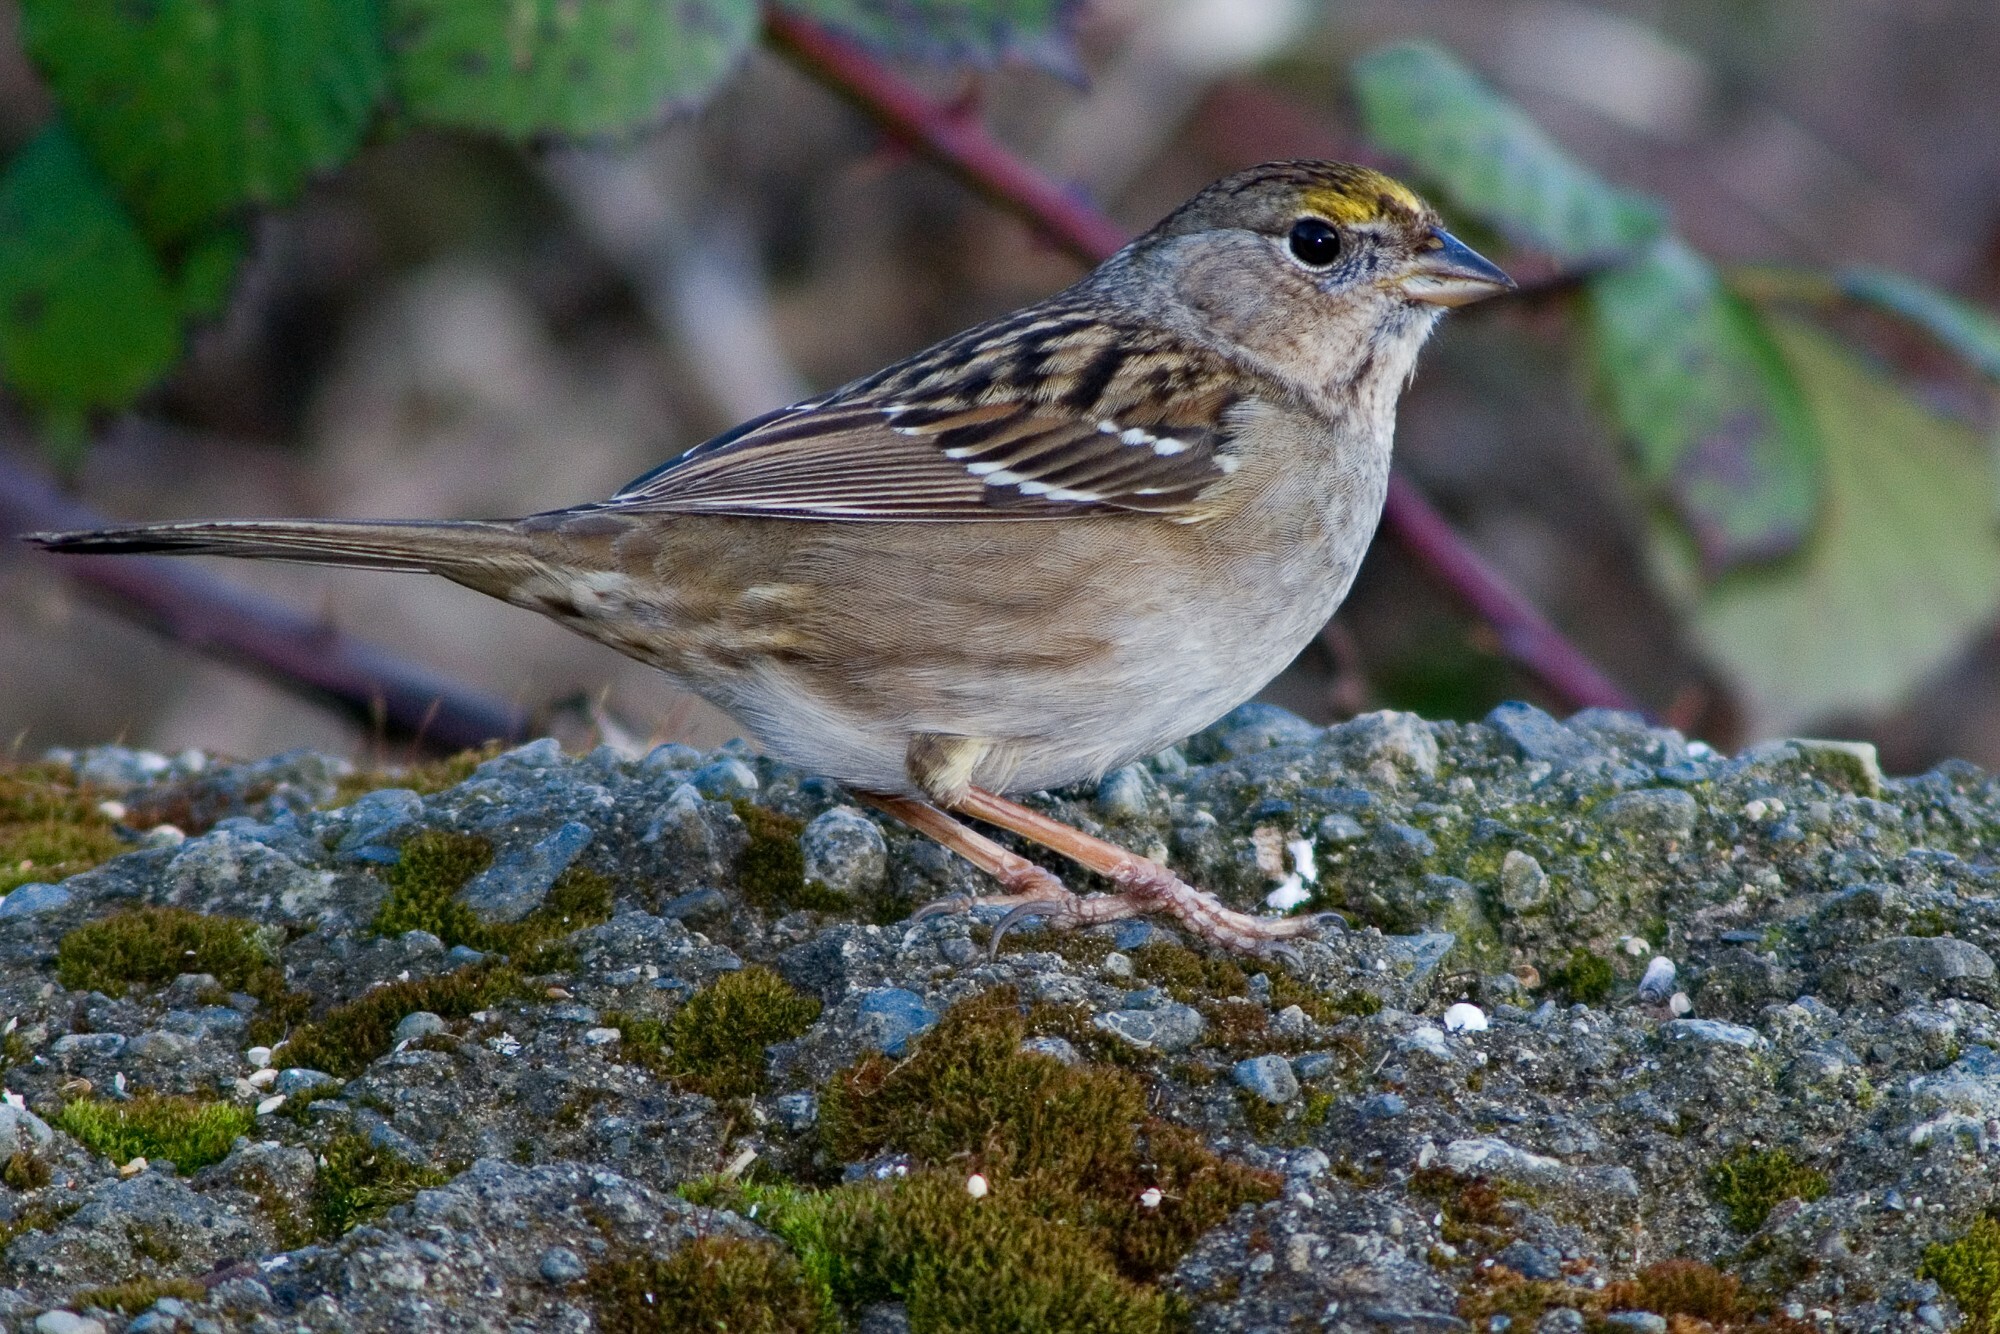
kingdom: Animalia
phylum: Chordata
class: Aves
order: Passeriformes
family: Passerellidae
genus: Zonotrichia
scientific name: Zonotrichia atricapilla
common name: Golden-crowned sparrow
